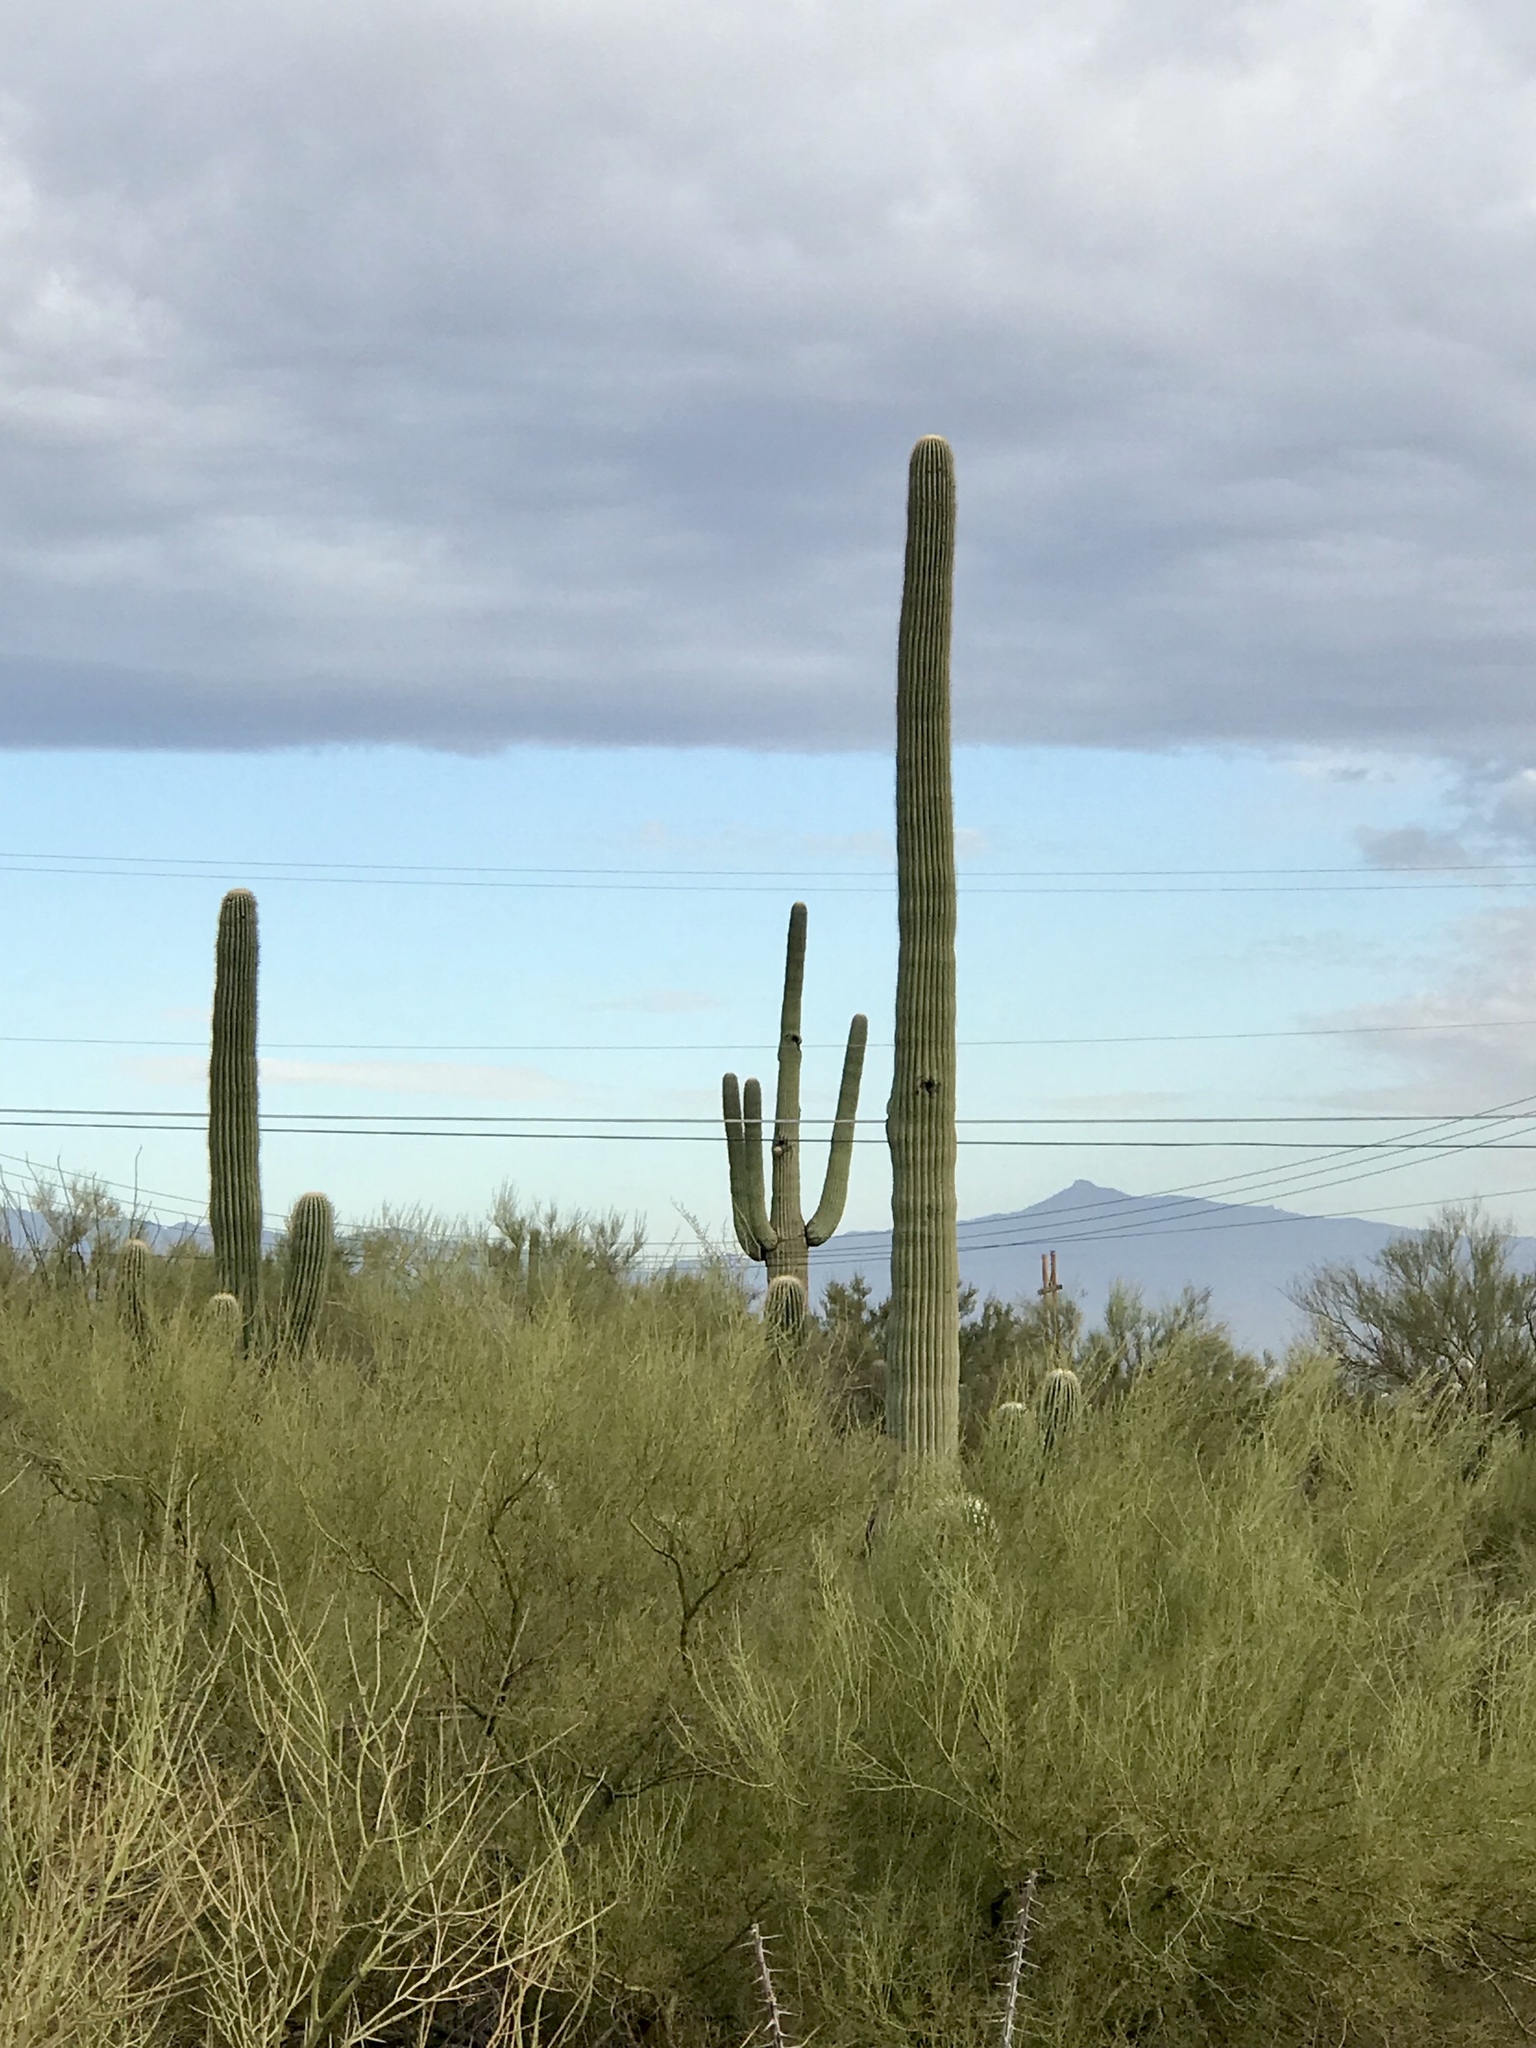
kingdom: Plantae
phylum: Tracheophyta
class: Magnoliopsida
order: Caryophyllales
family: Cactaceae
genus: Carnegiea
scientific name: Carnegiea gigantea
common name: Saguaro
